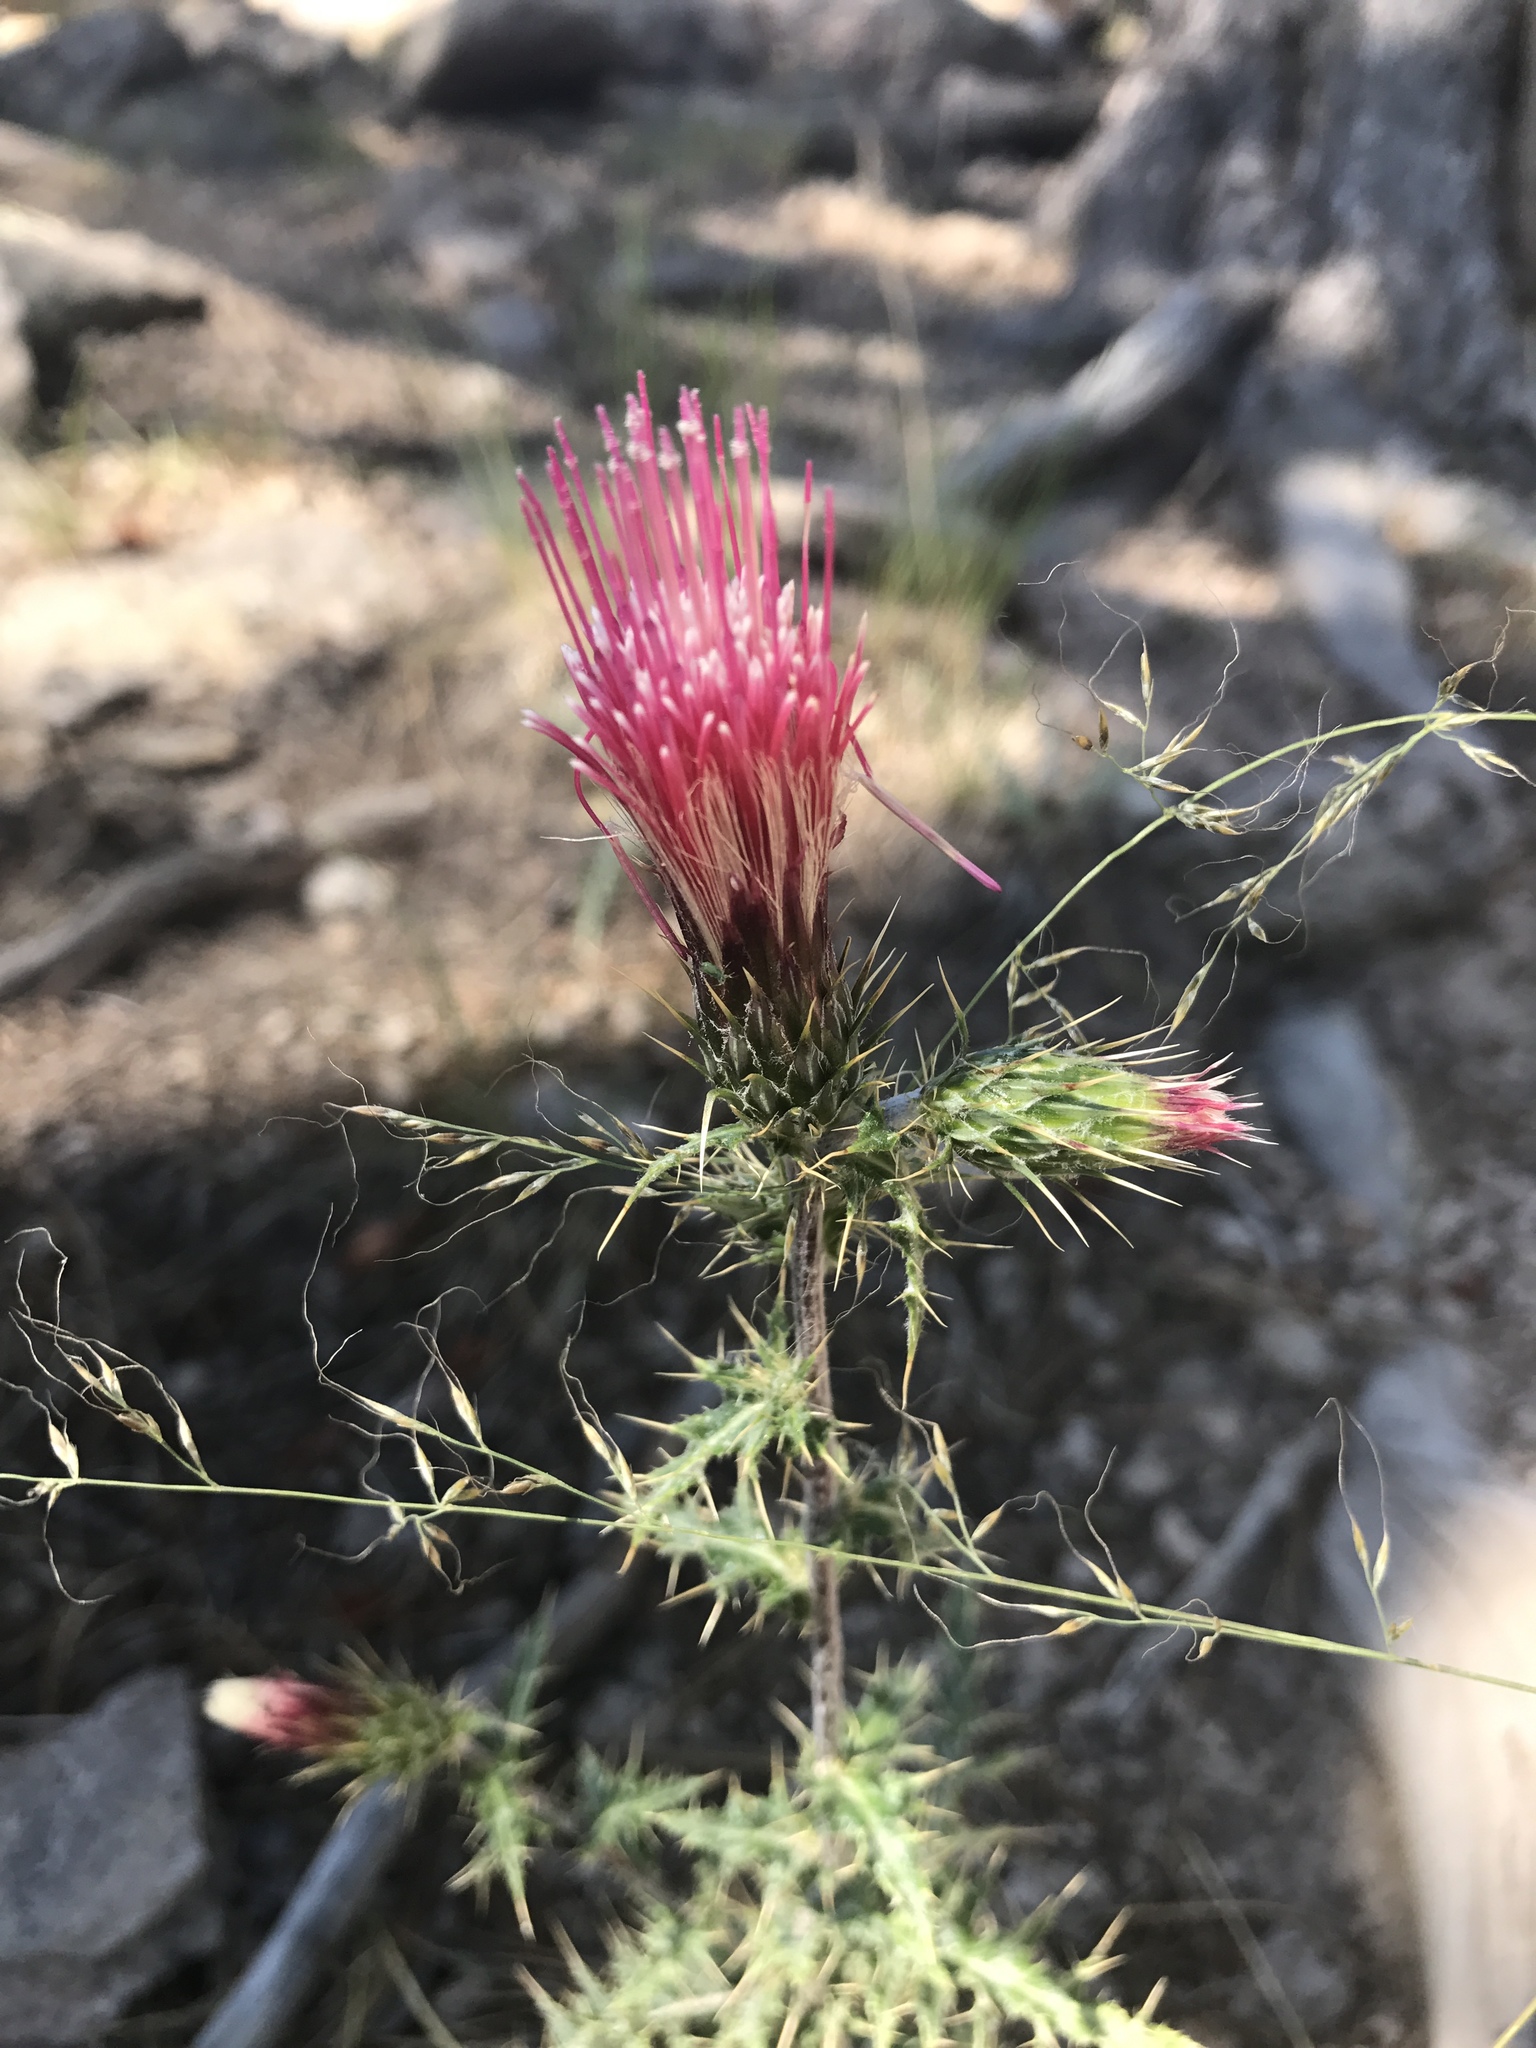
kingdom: Plantae
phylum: Tracheophyta
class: Magnoliopsida
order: Asterales
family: Asteraceae
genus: Cirsium
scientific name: Cirsium arizonicum
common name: Arizona thistle
